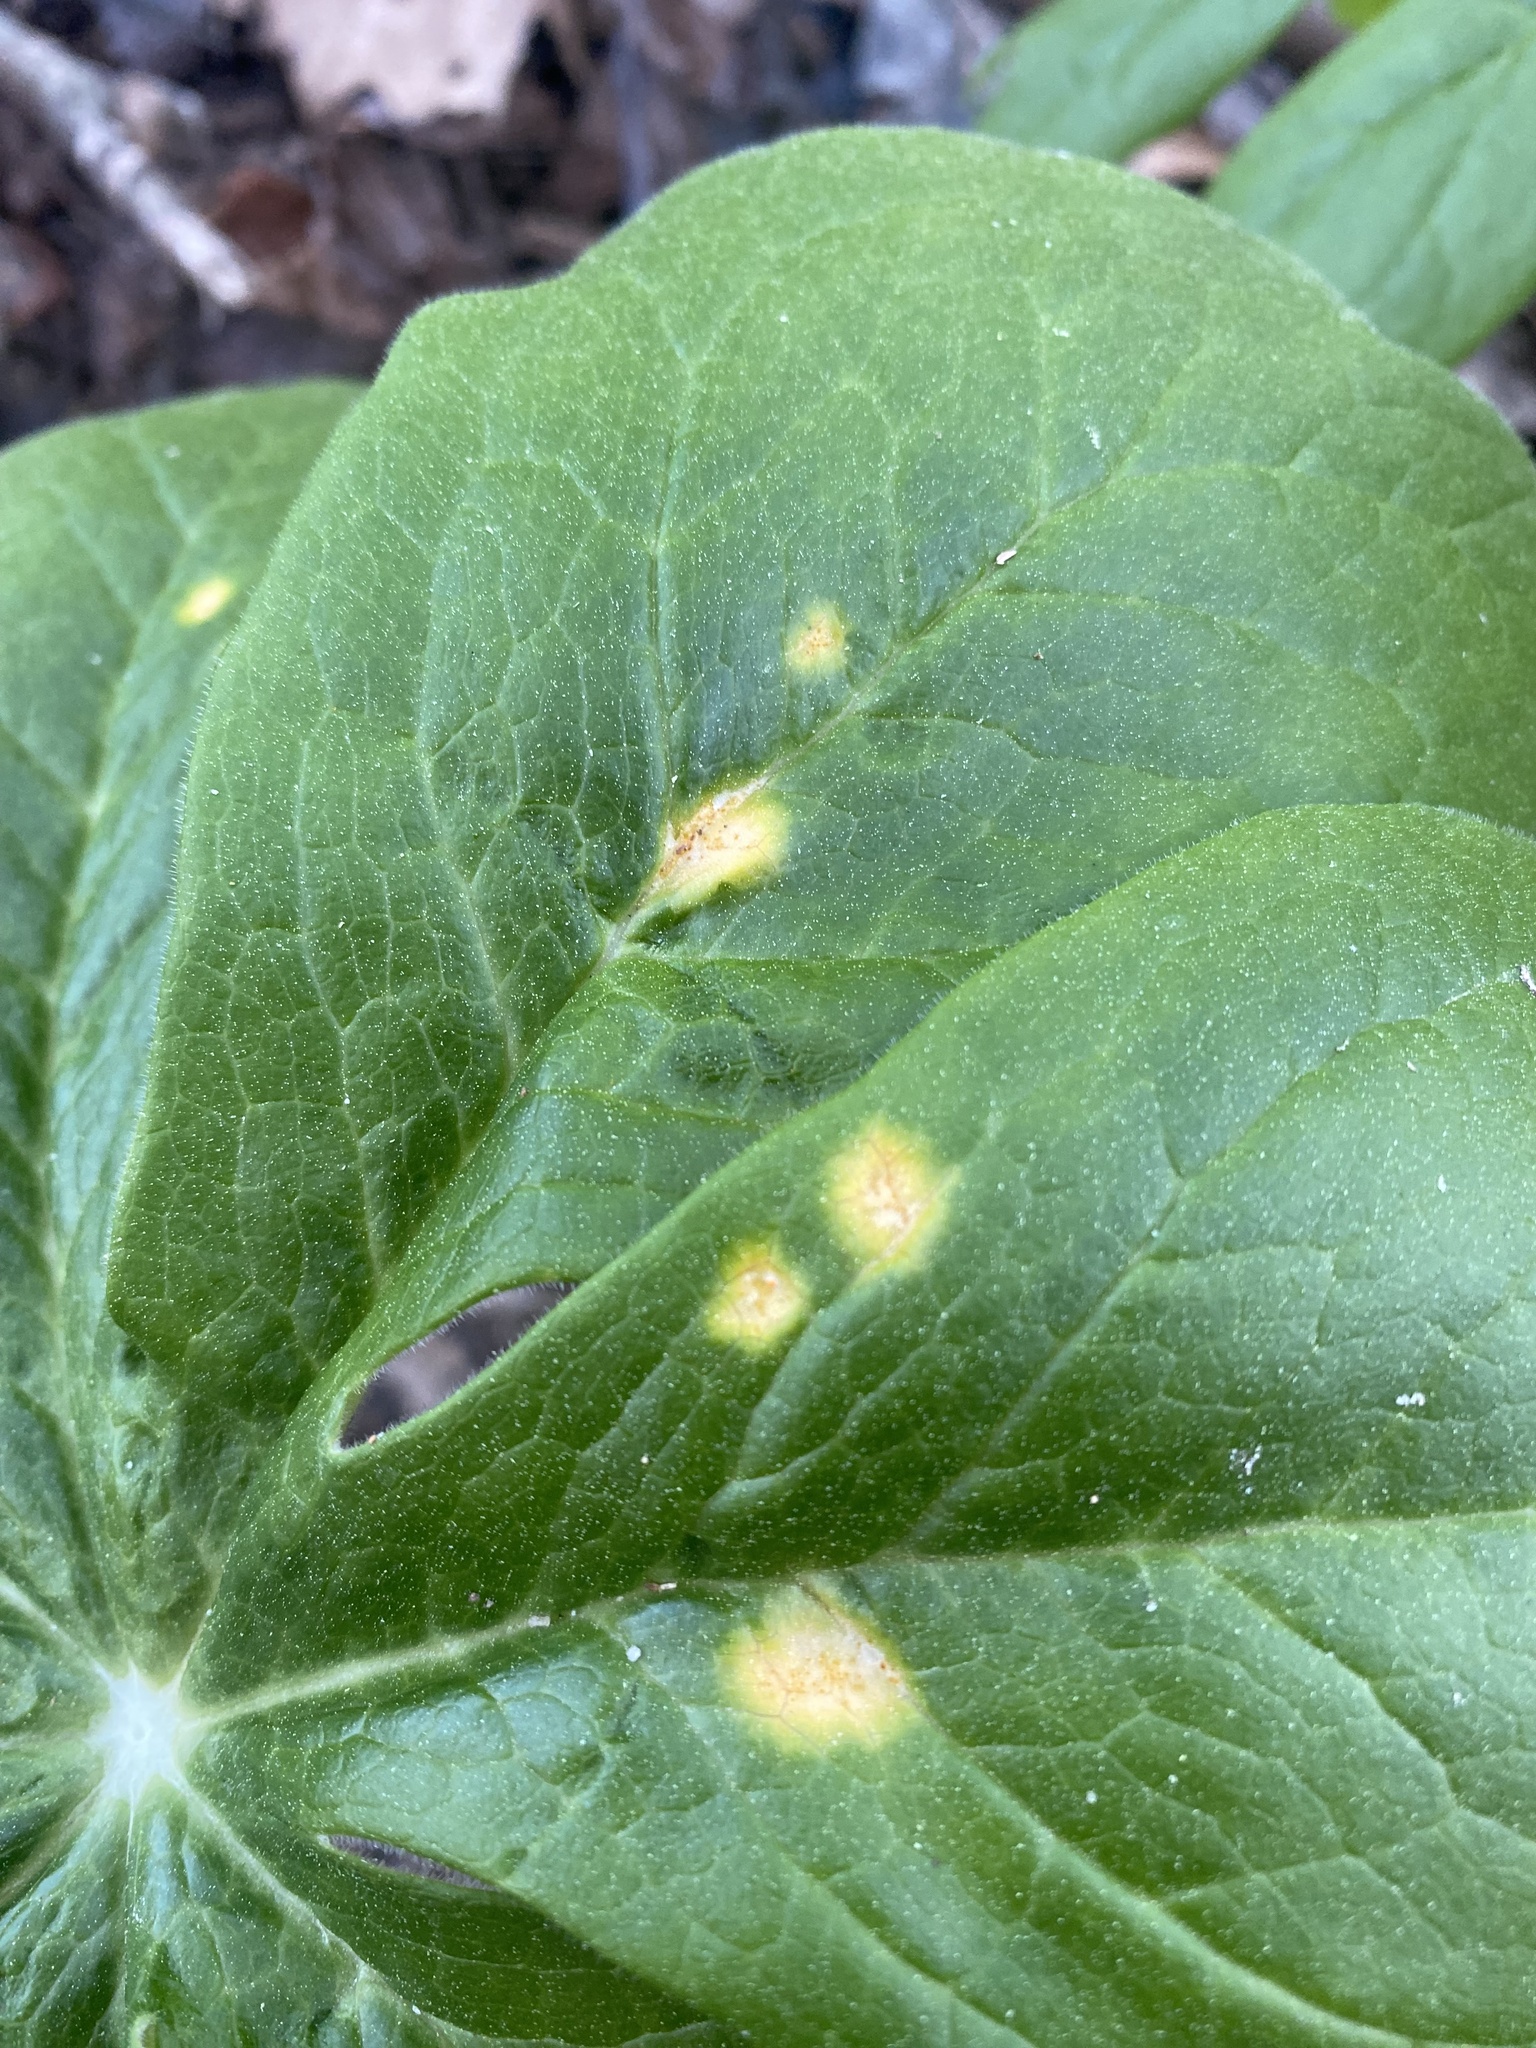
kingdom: Fungi
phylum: Basidiomycota
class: Pucciniomycetes
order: Pucciniales
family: Pucciniaceae
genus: Puccinia
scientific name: Puccinia podophylli
